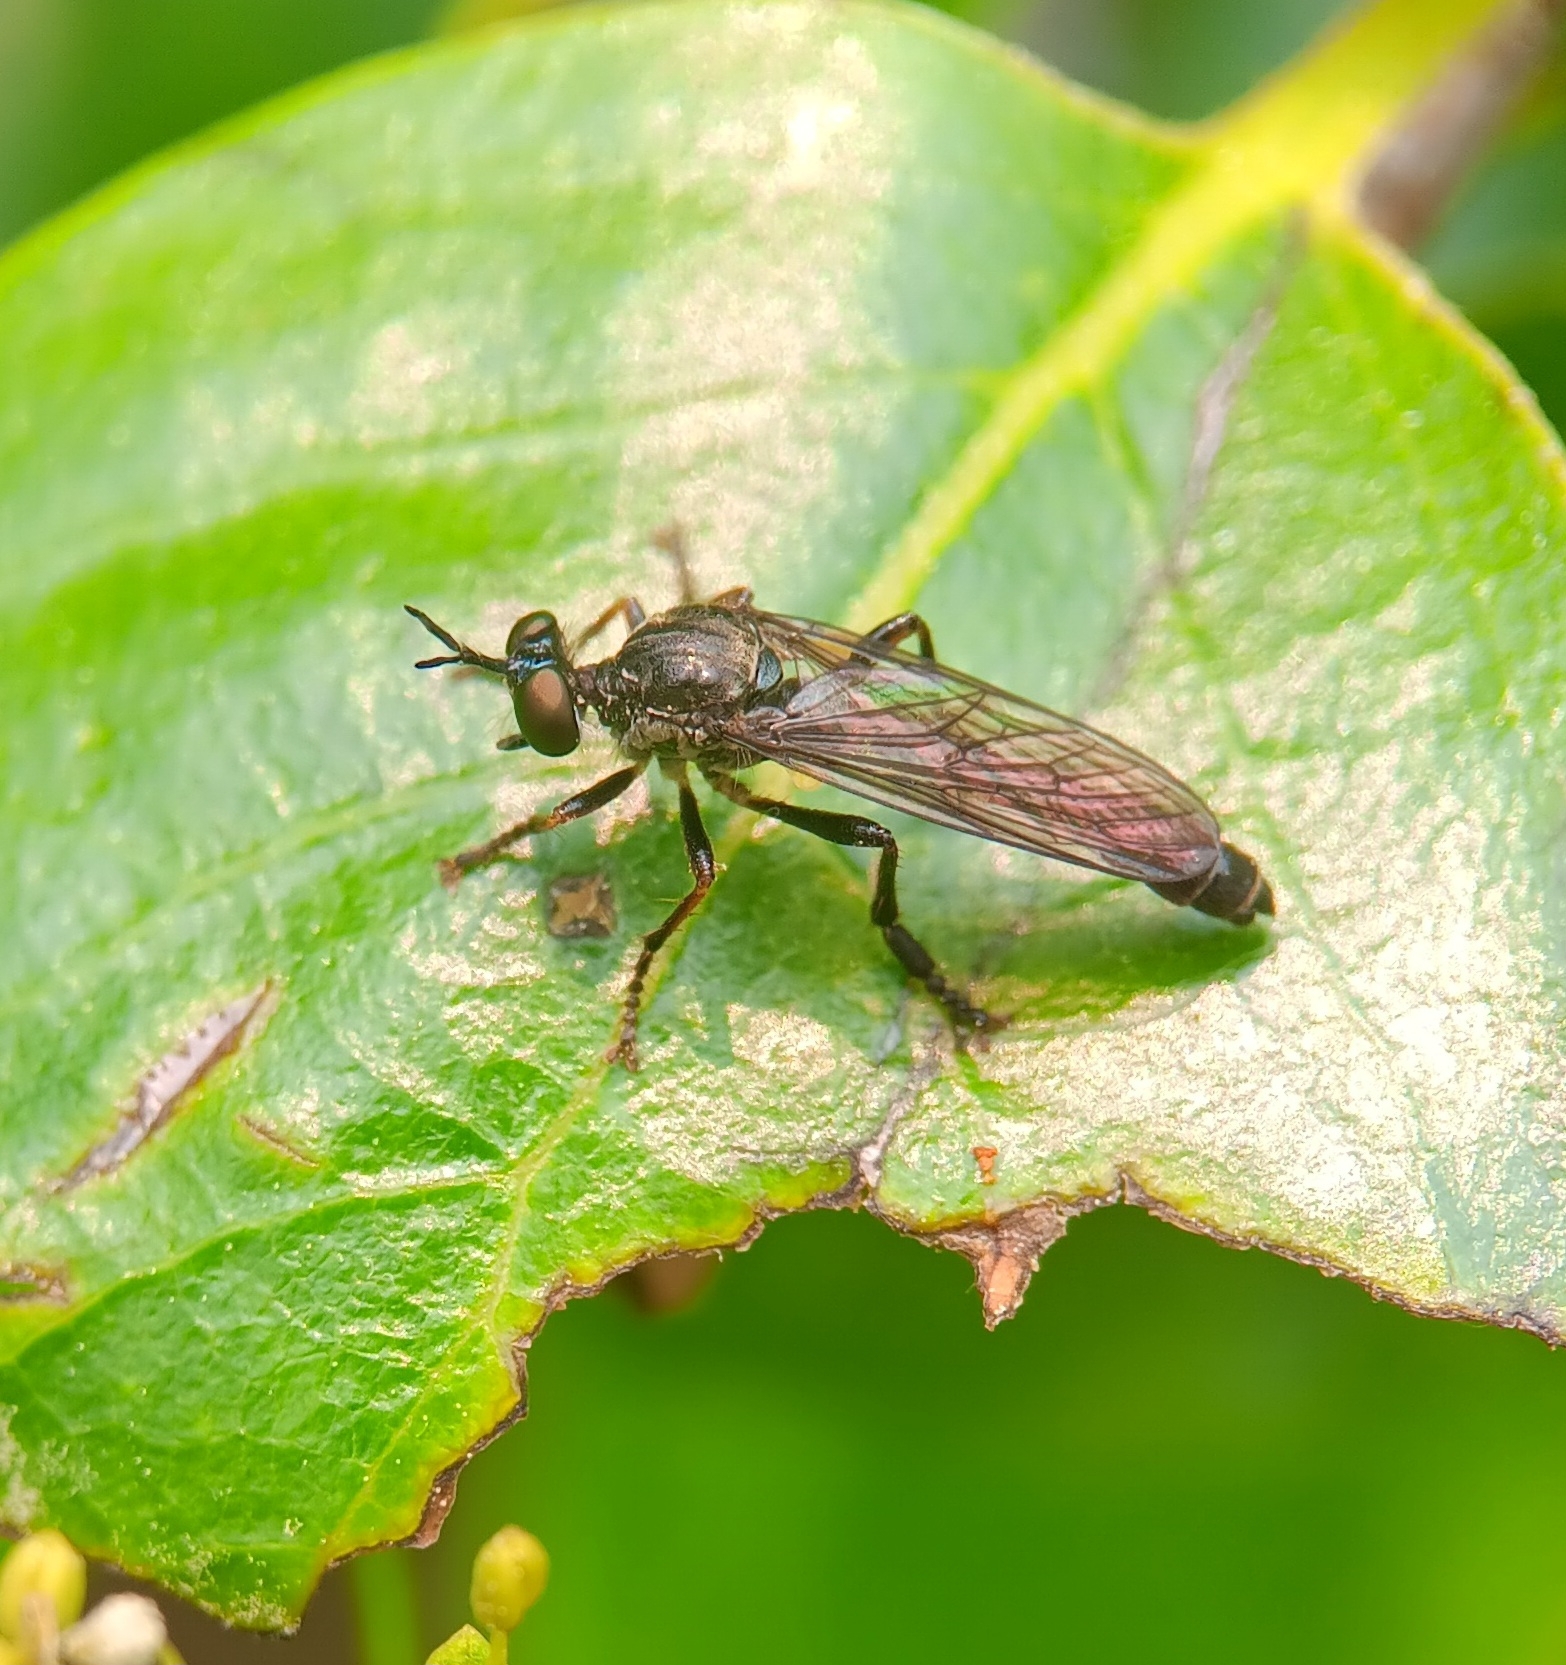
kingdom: Animalia
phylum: Arthropoda
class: Insecta
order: Diptera
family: Asilidae
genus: Dioctria
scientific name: Dioctria hyalipennis
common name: Stripe-legged robberfly
